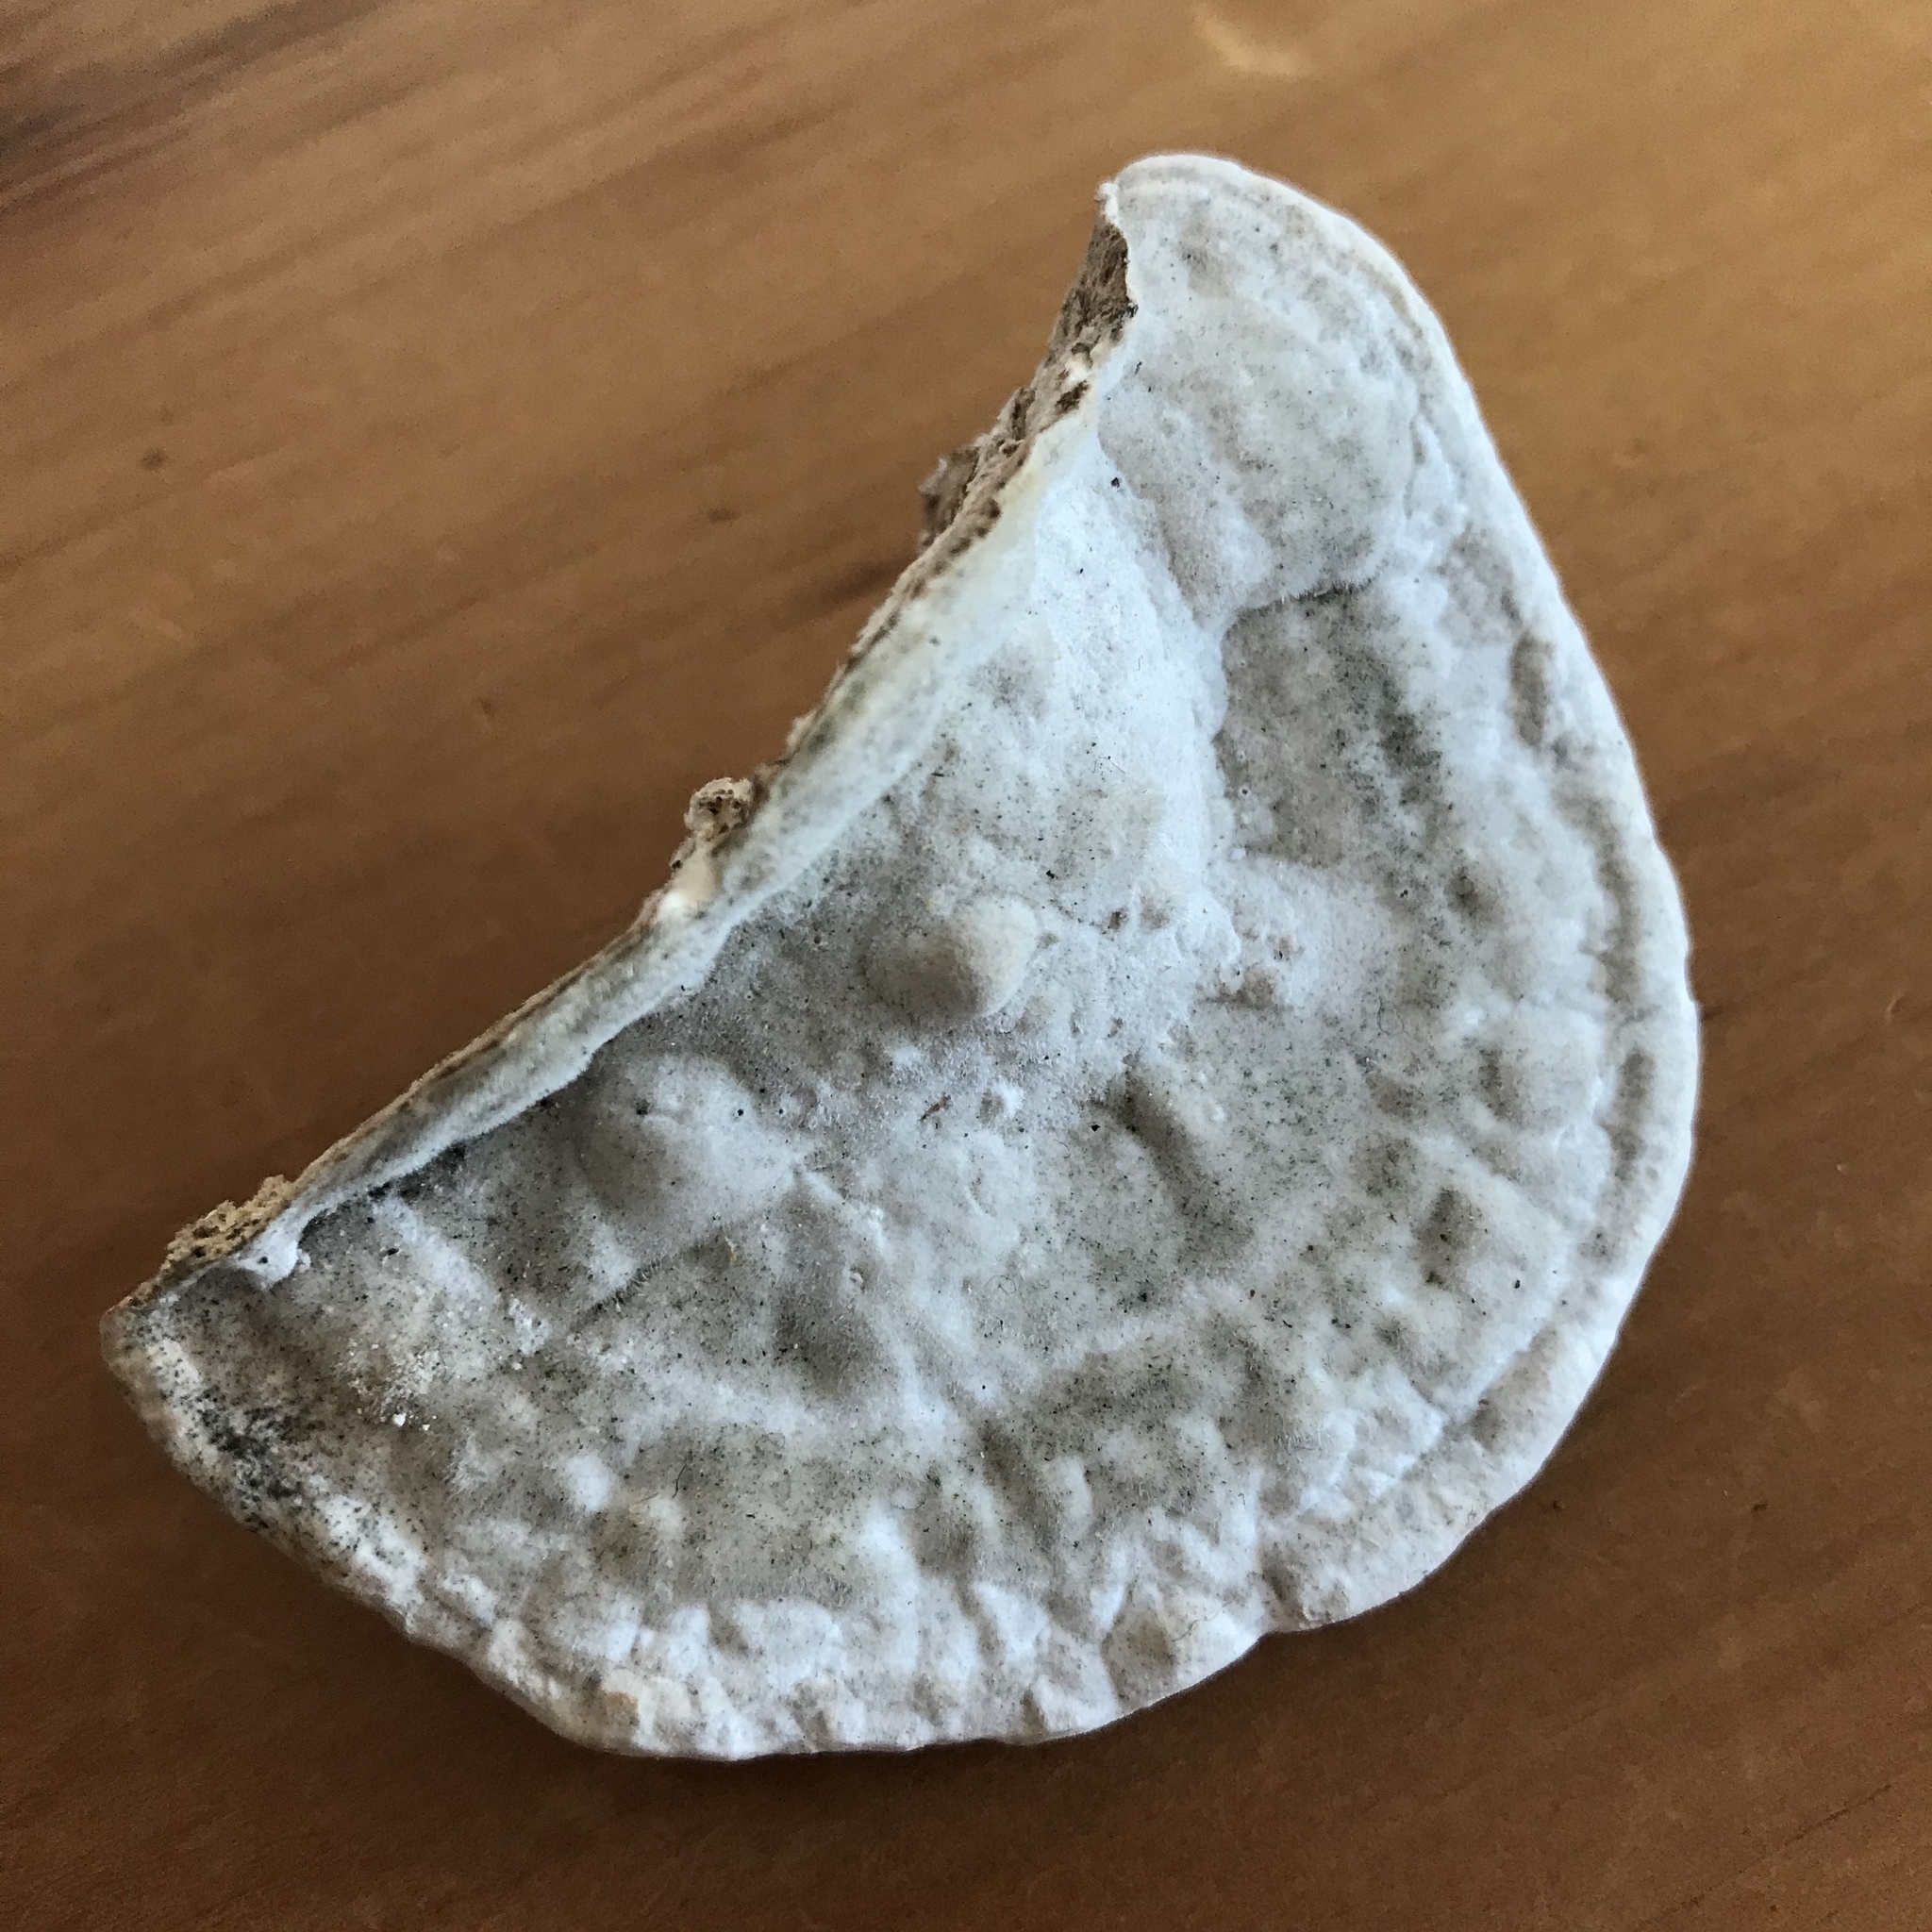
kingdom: Fungi
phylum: Basidiomycota
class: Agaricomycetes
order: Polyporales
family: Polyporaceae
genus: Trametes
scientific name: Trametes gibbosa
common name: Lumpy bracket
